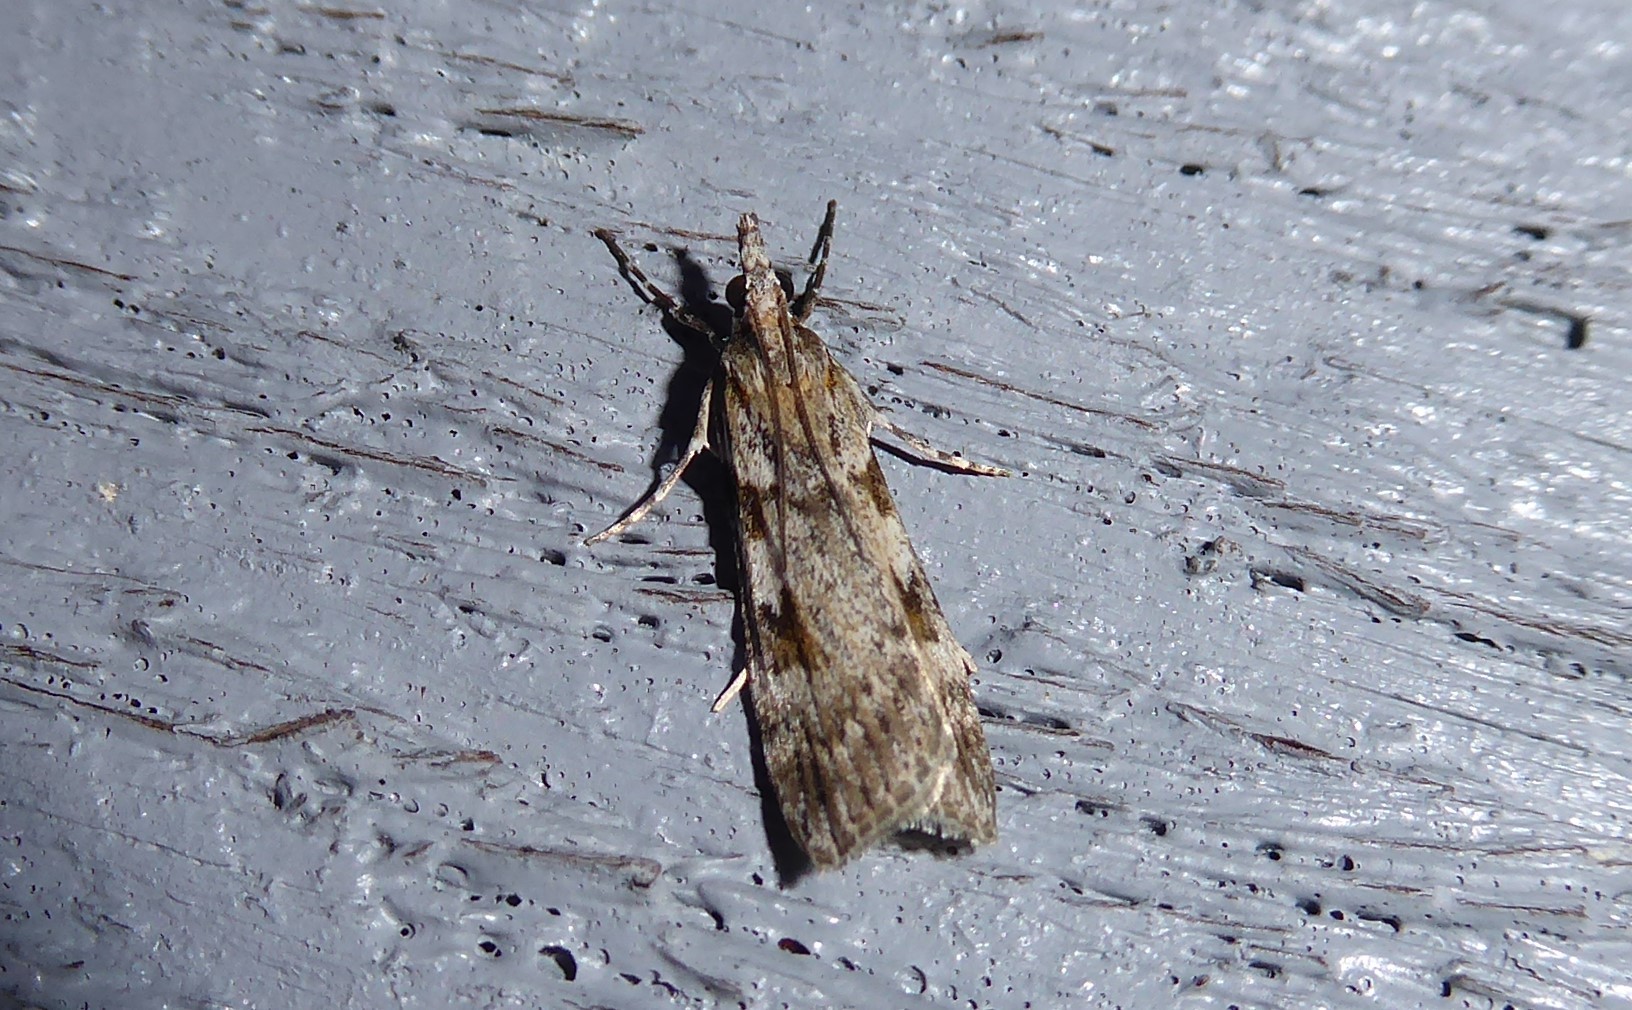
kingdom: Animalia
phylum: Arthropoda
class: Insecta
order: Lepidoptera
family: Crambidae
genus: Scoparia
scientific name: Scoparia halopis
